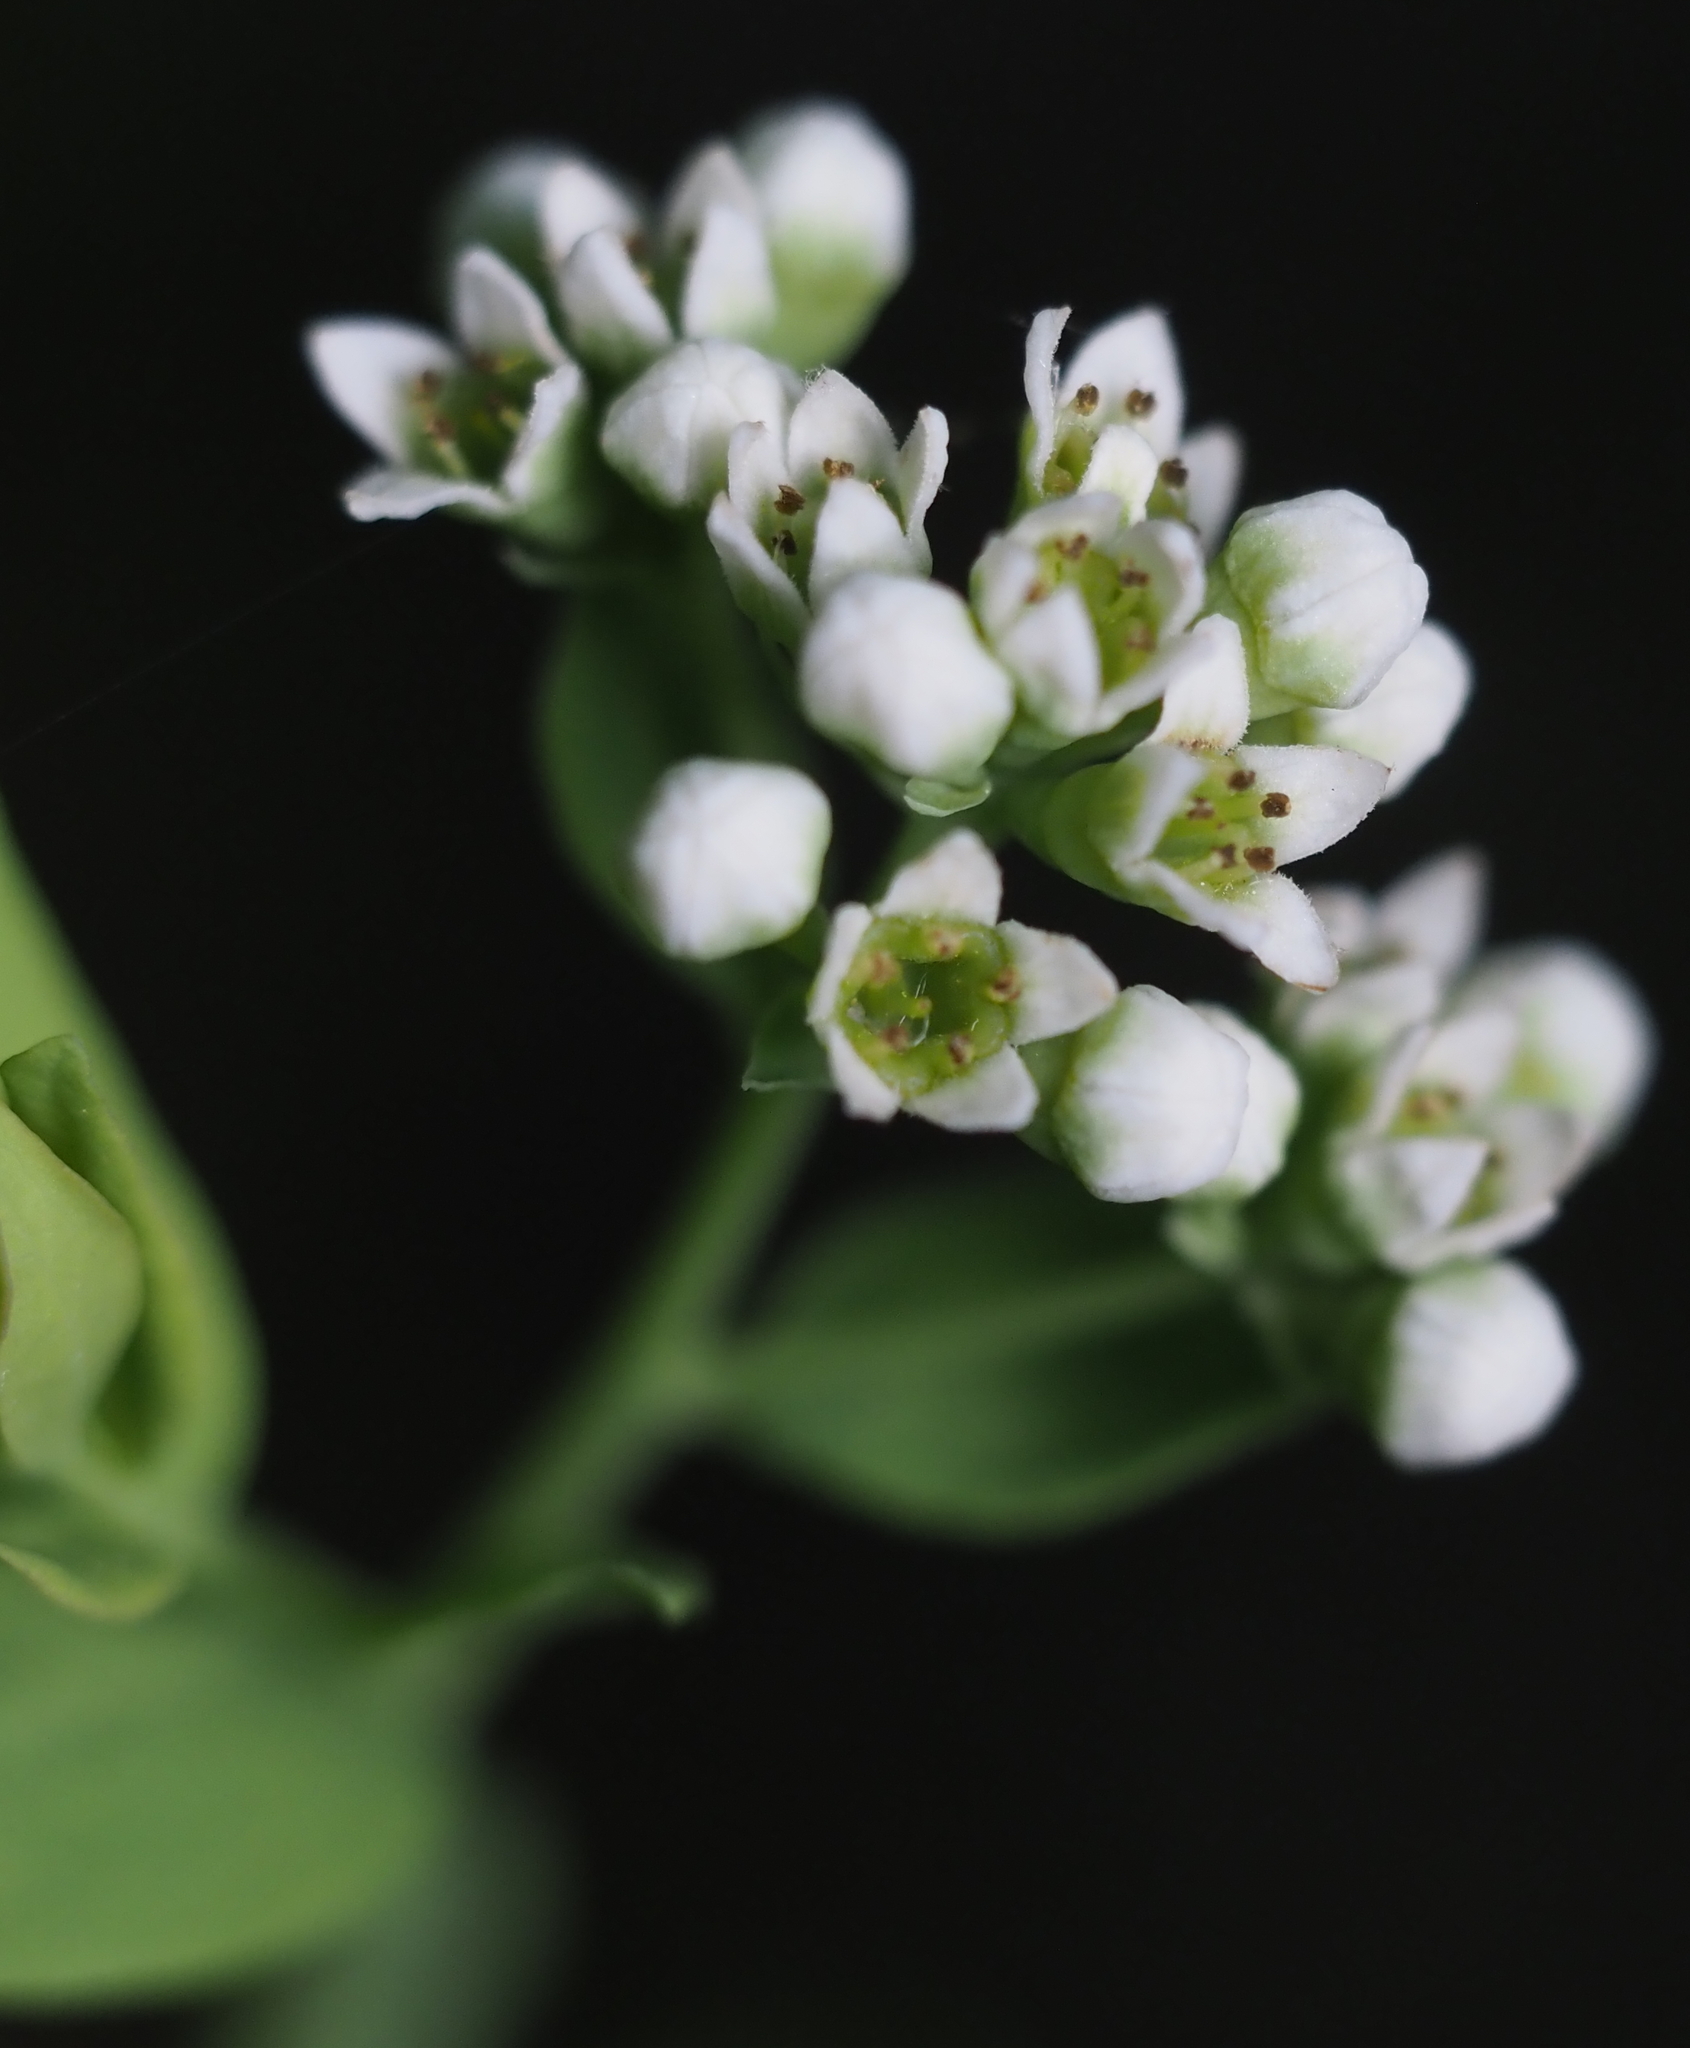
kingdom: Plantae
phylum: Tracheophyta
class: Magnoliopsida
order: Santalales
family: Comandraceae
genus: Comandra
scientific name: Comandra umbellata
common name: Bastard toadflax
